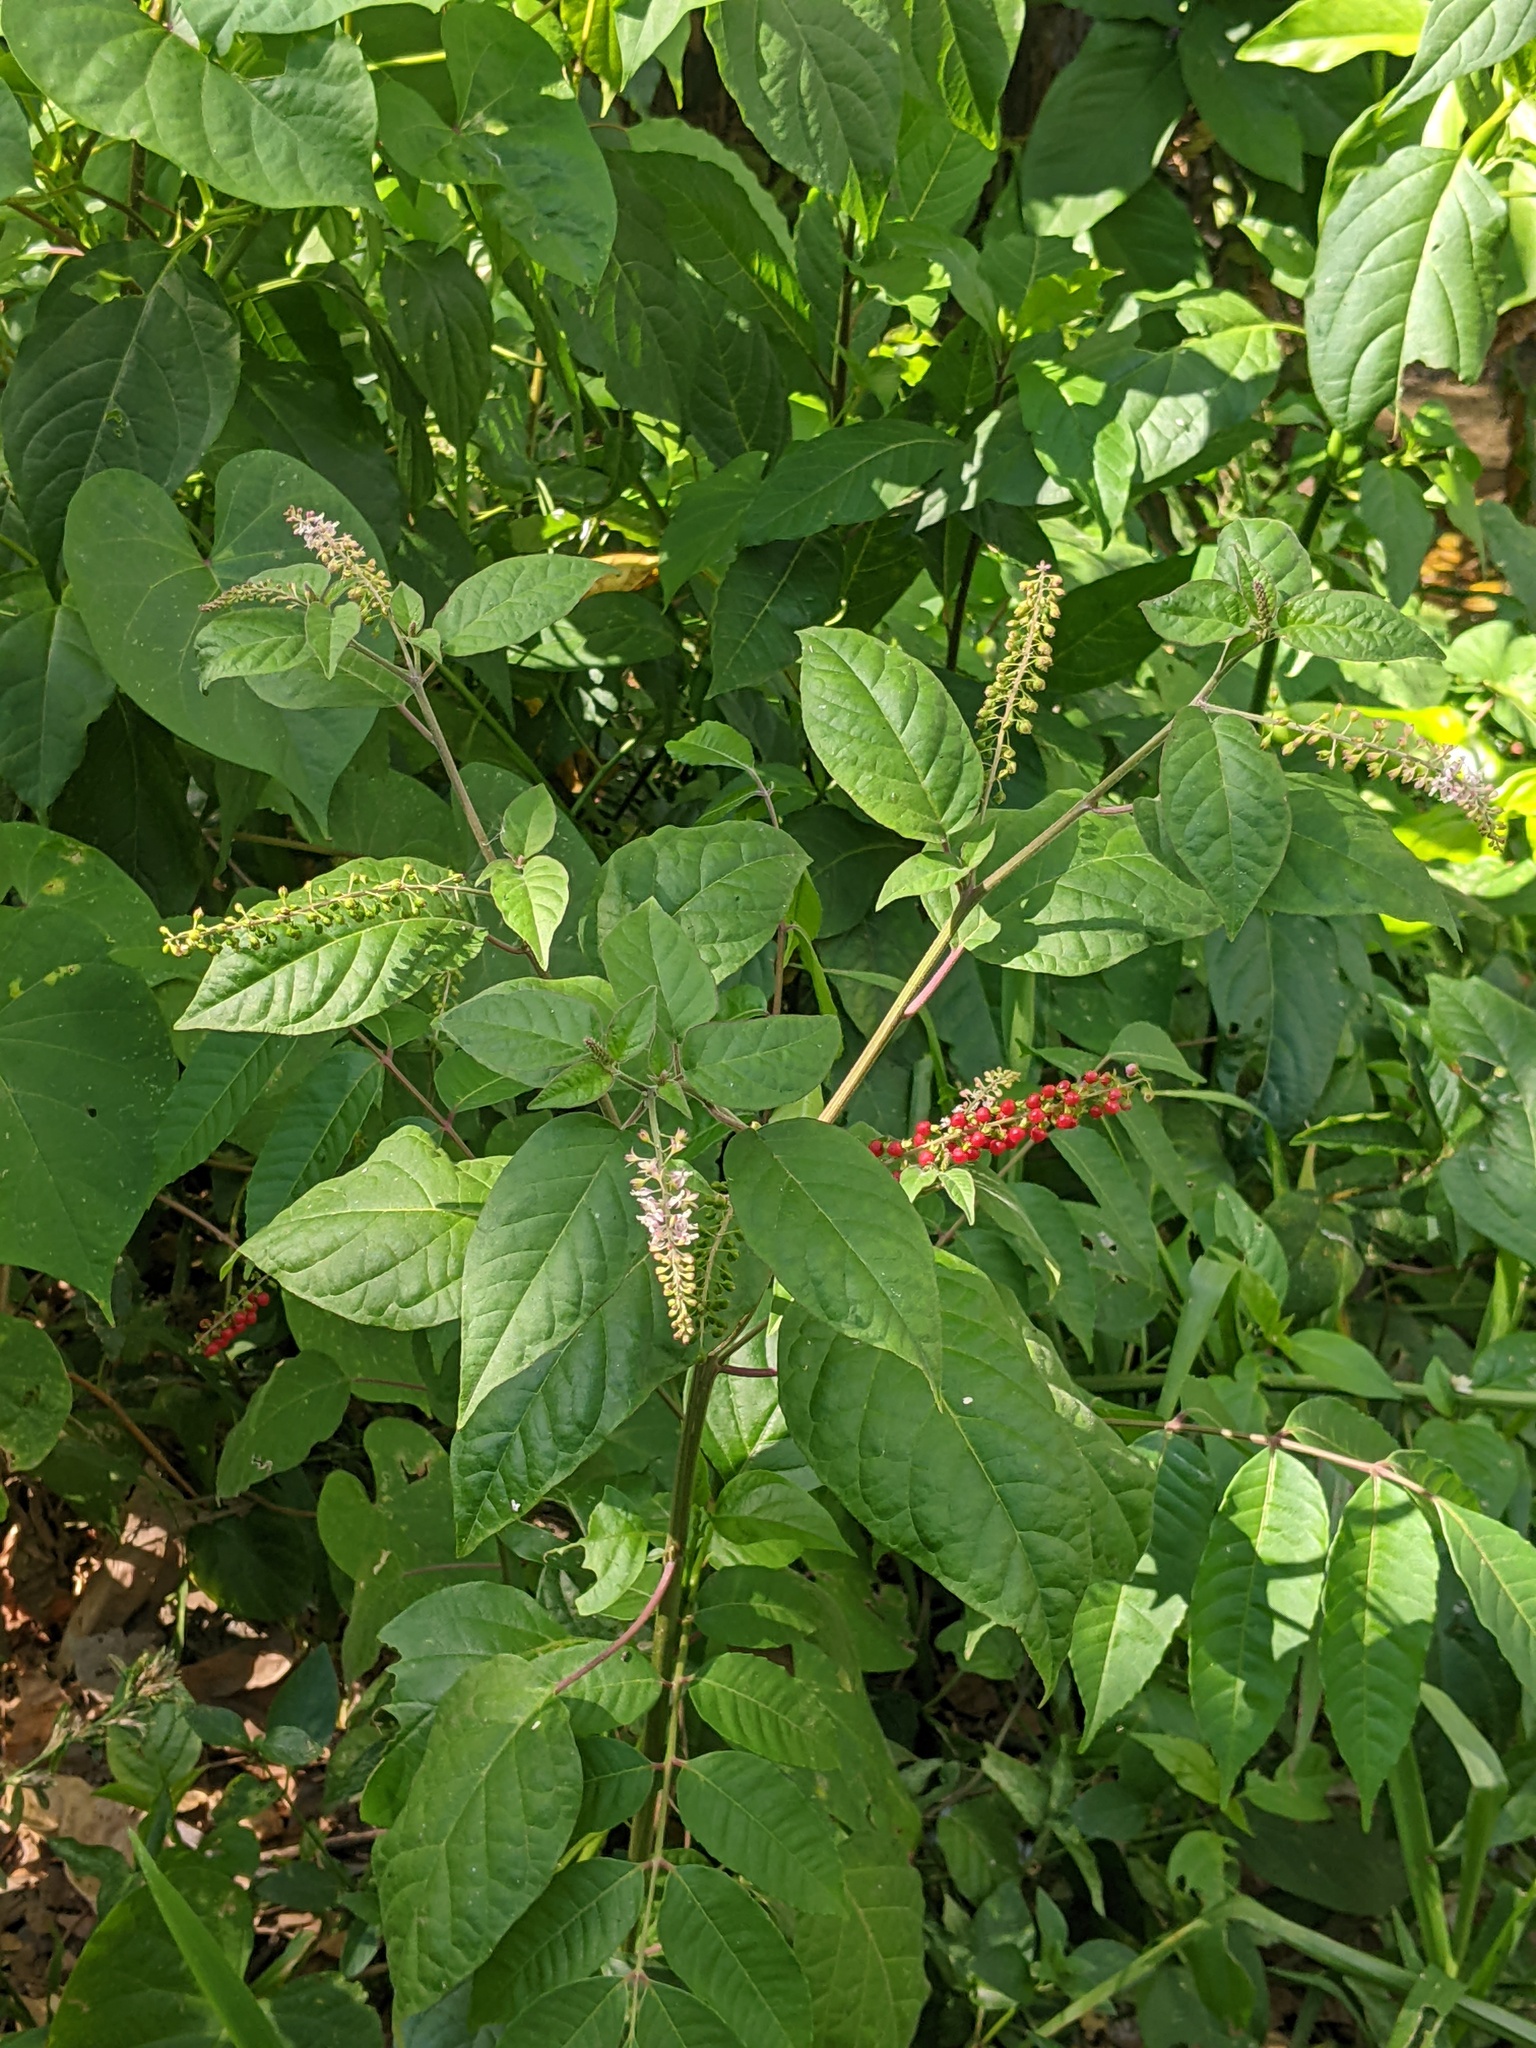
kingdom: Plantae
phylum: Tracheophyta
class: Magnoliopsida
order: Caryophyllales
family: Phytolaccaceae
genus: Rivina
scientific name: Rivina humilis
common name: Rougeplant
